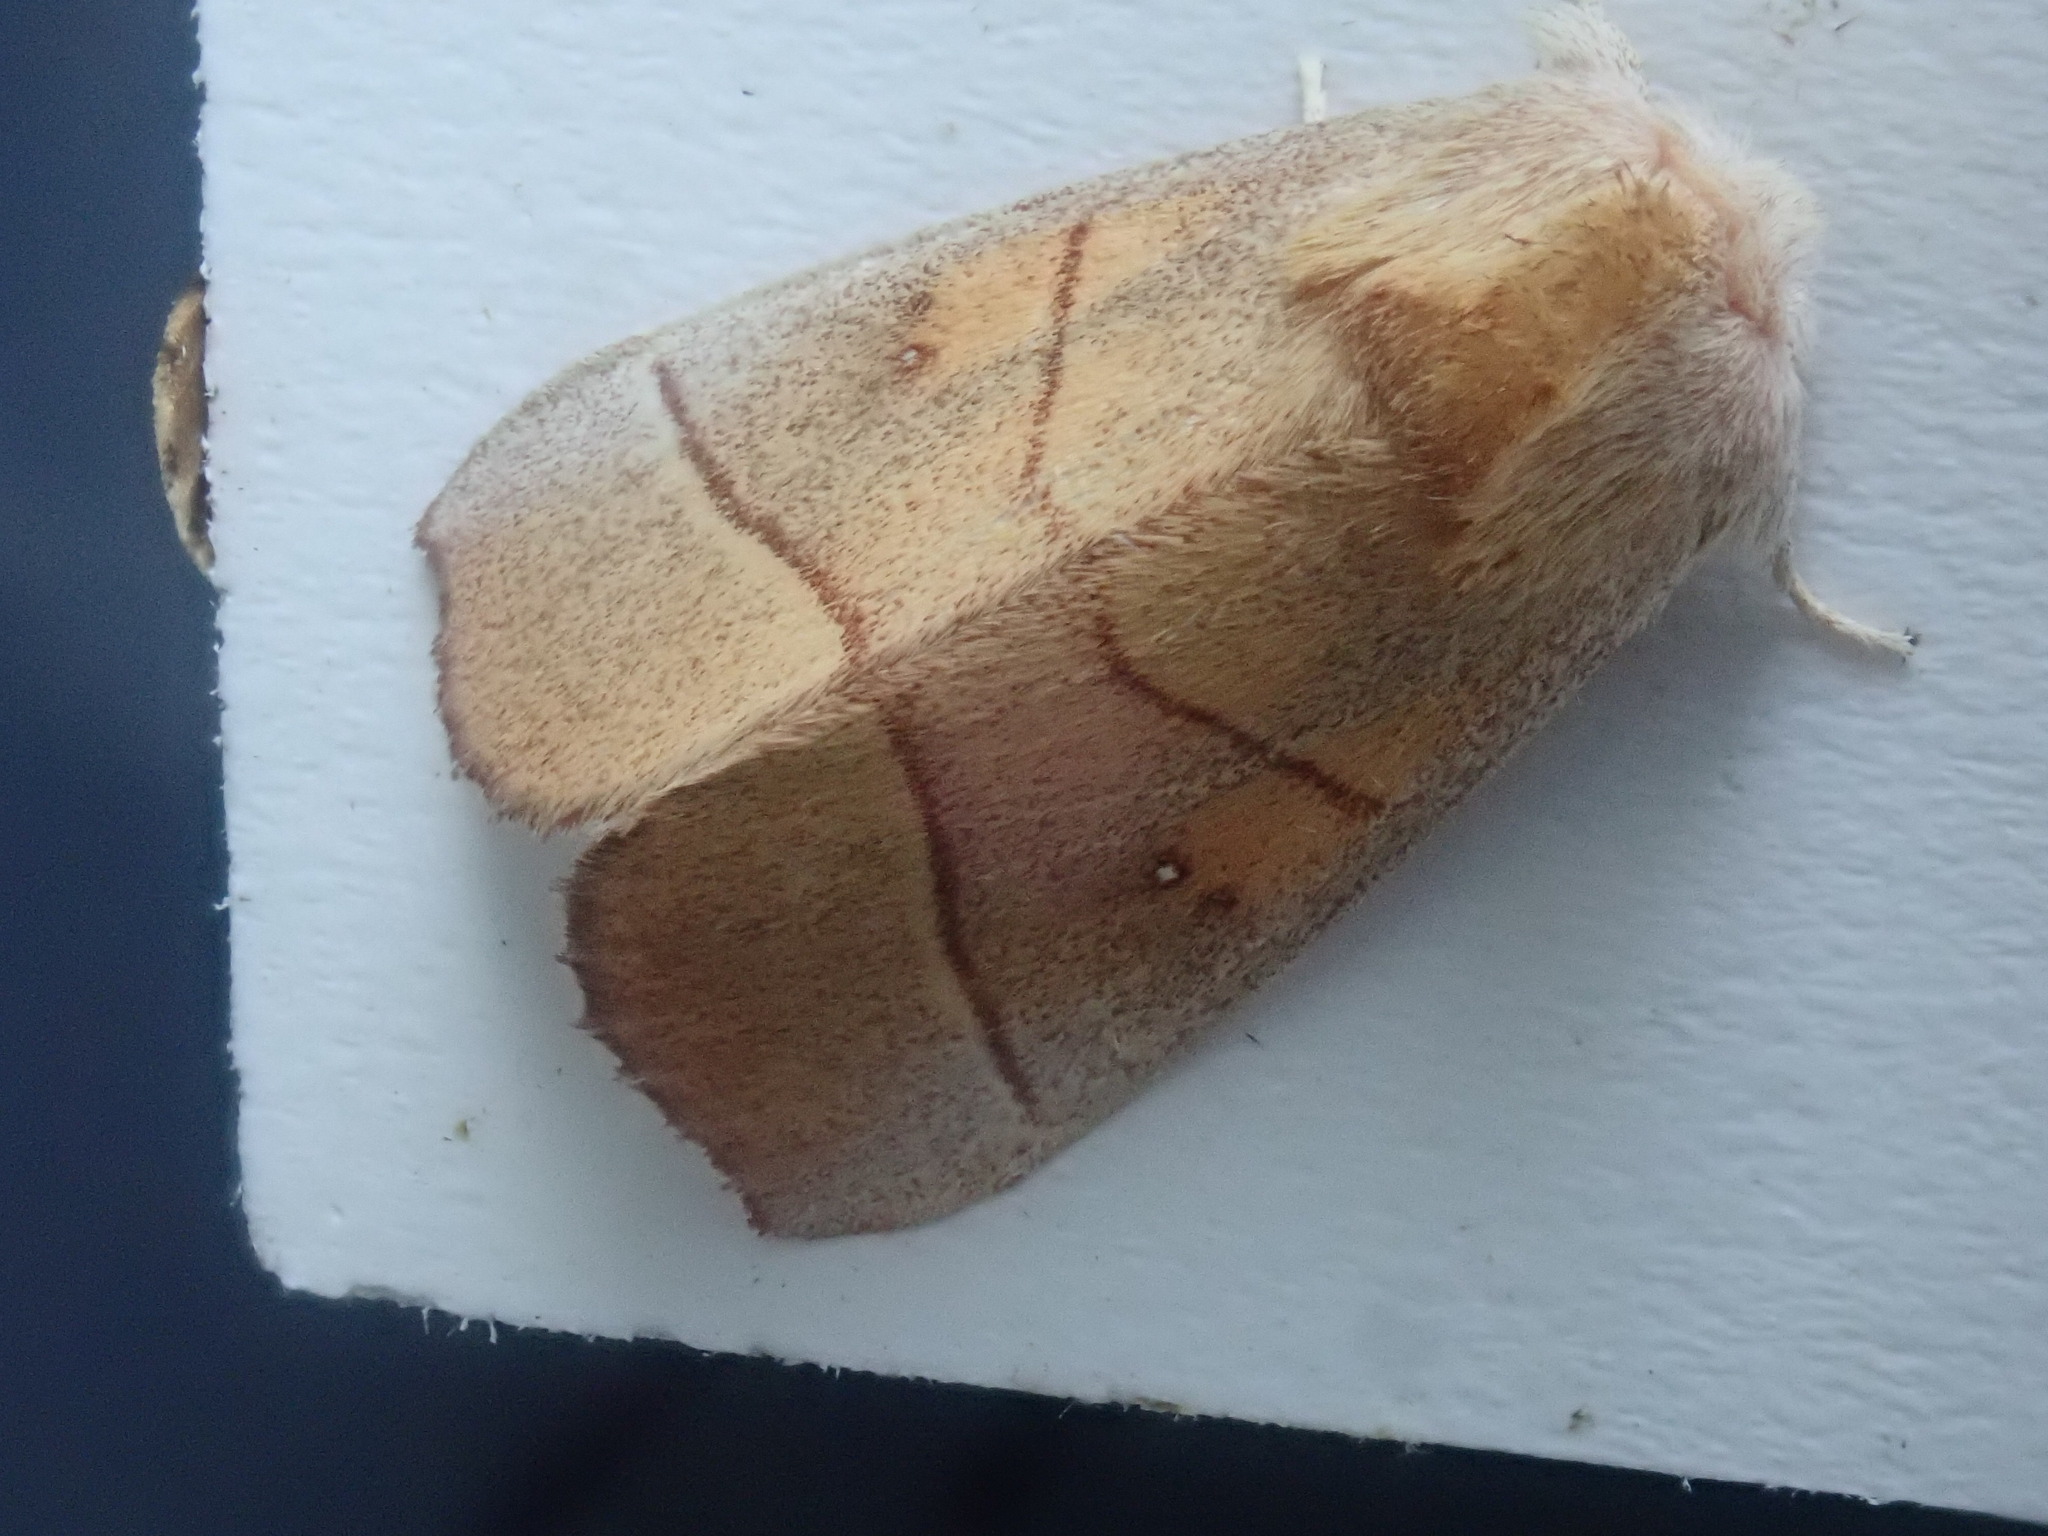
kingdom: Animalia
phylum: Arthropoda
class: Insecta
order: Lepidoptera
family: Notodontidae
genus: Nadata
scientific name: Nadata gibbosa
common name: White-dotted prominent
